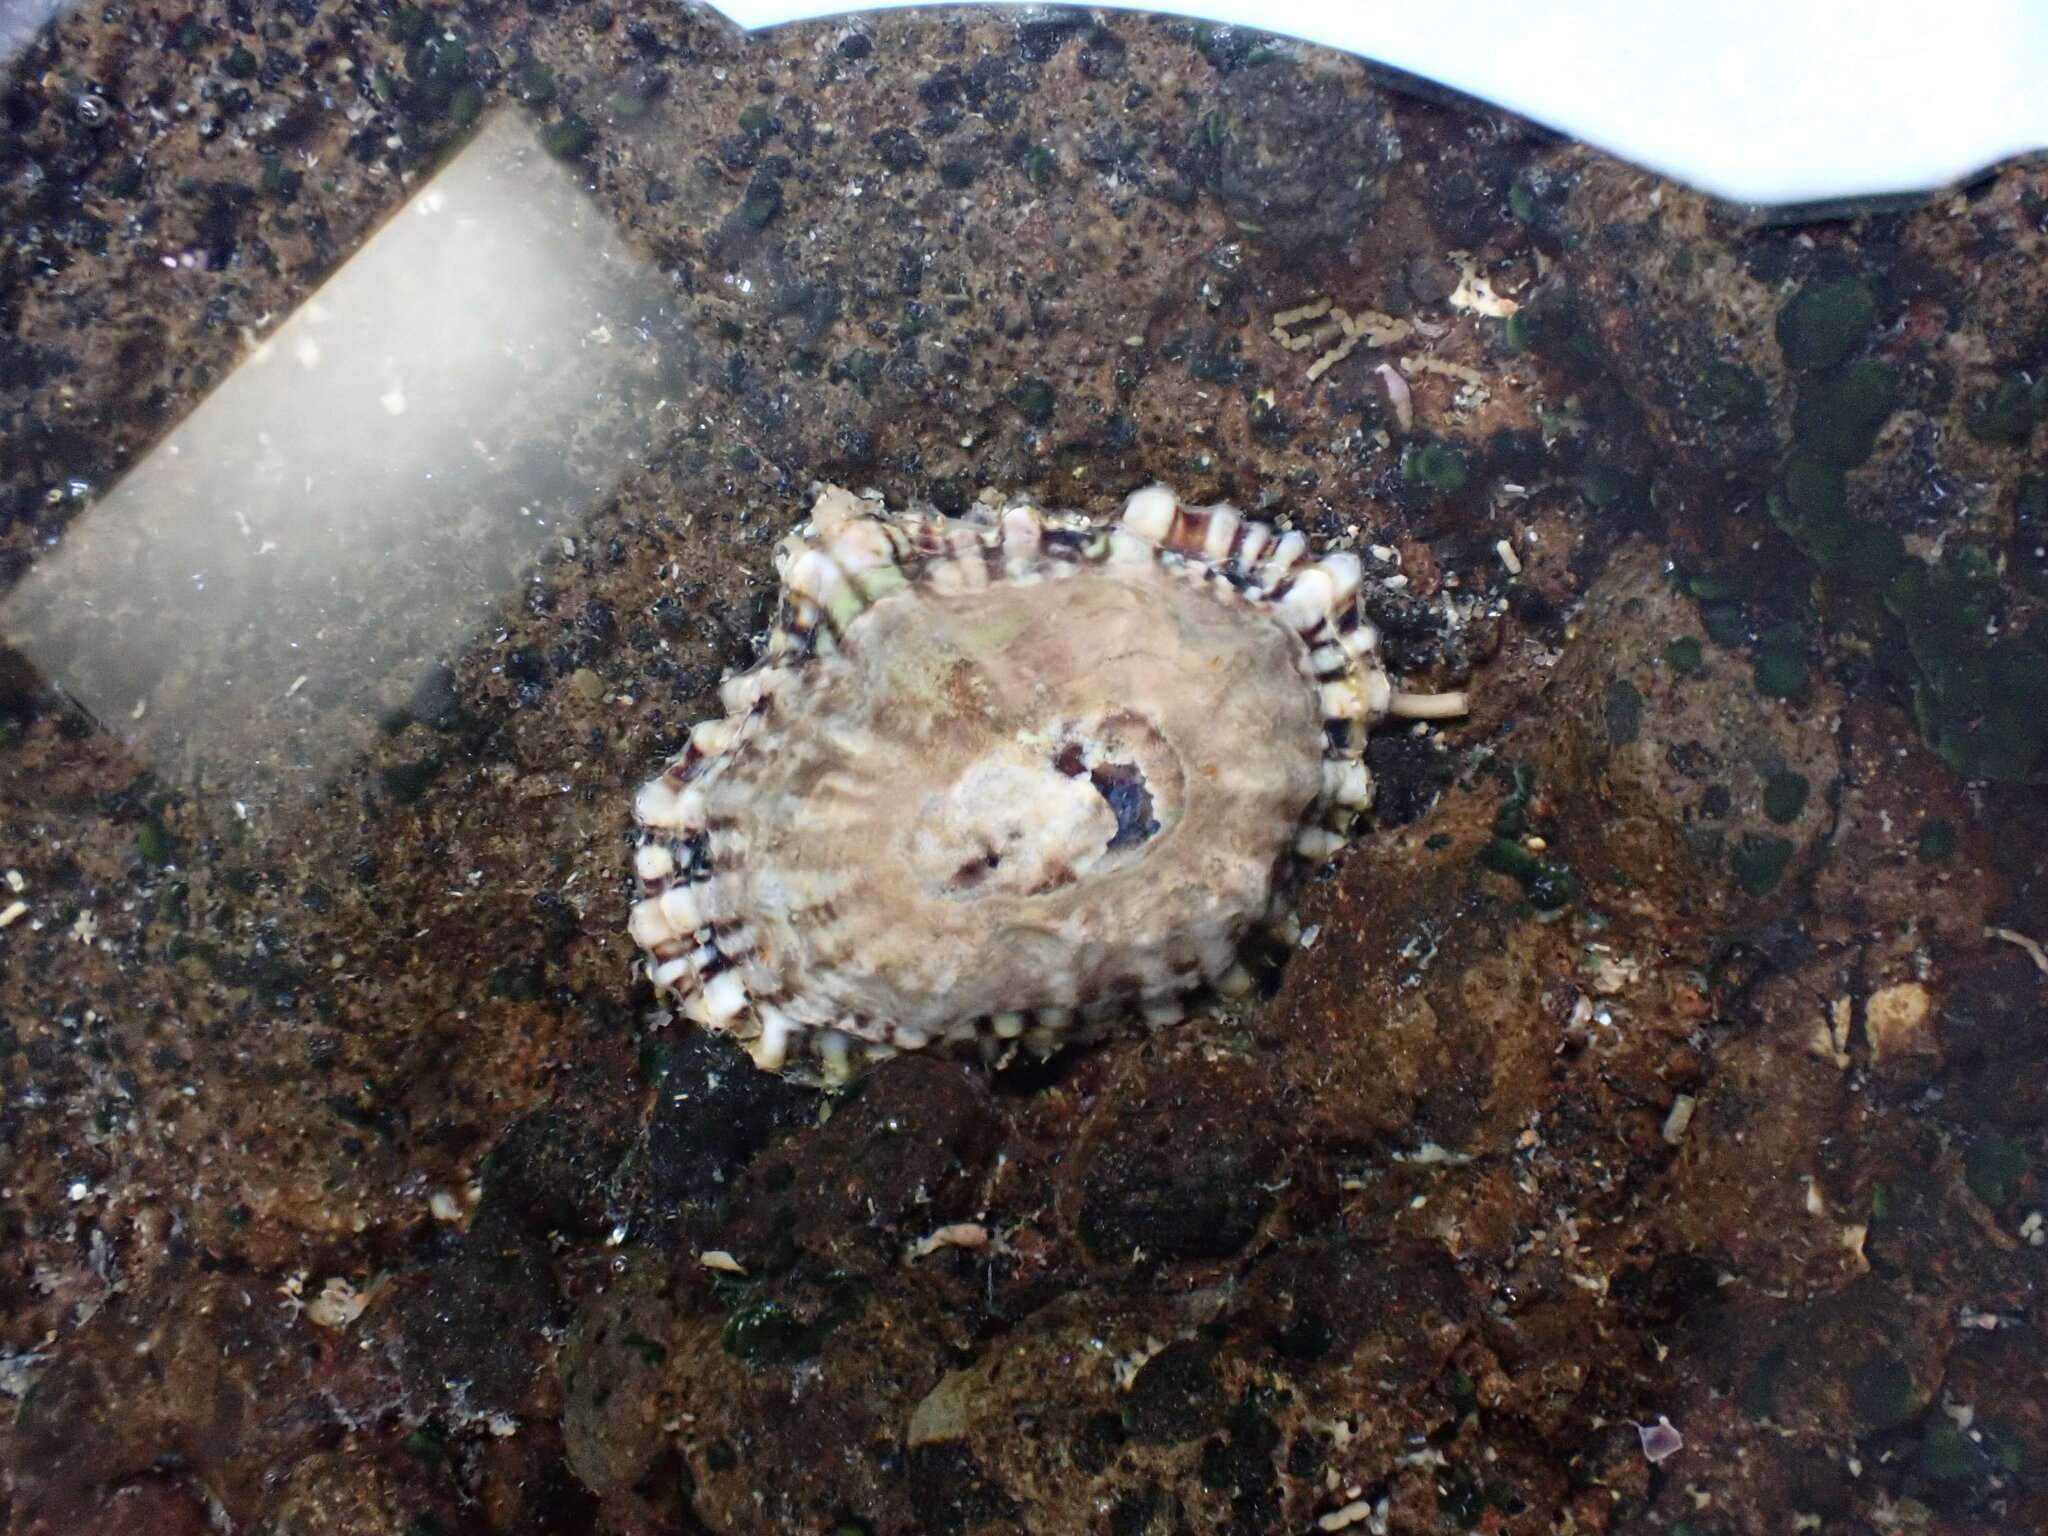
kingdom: Animalia
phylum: Mollusca
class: Gastropoda
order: Siphonariida
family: Siphonariidae
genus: Siphonaria
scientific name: Siphonaria australis
